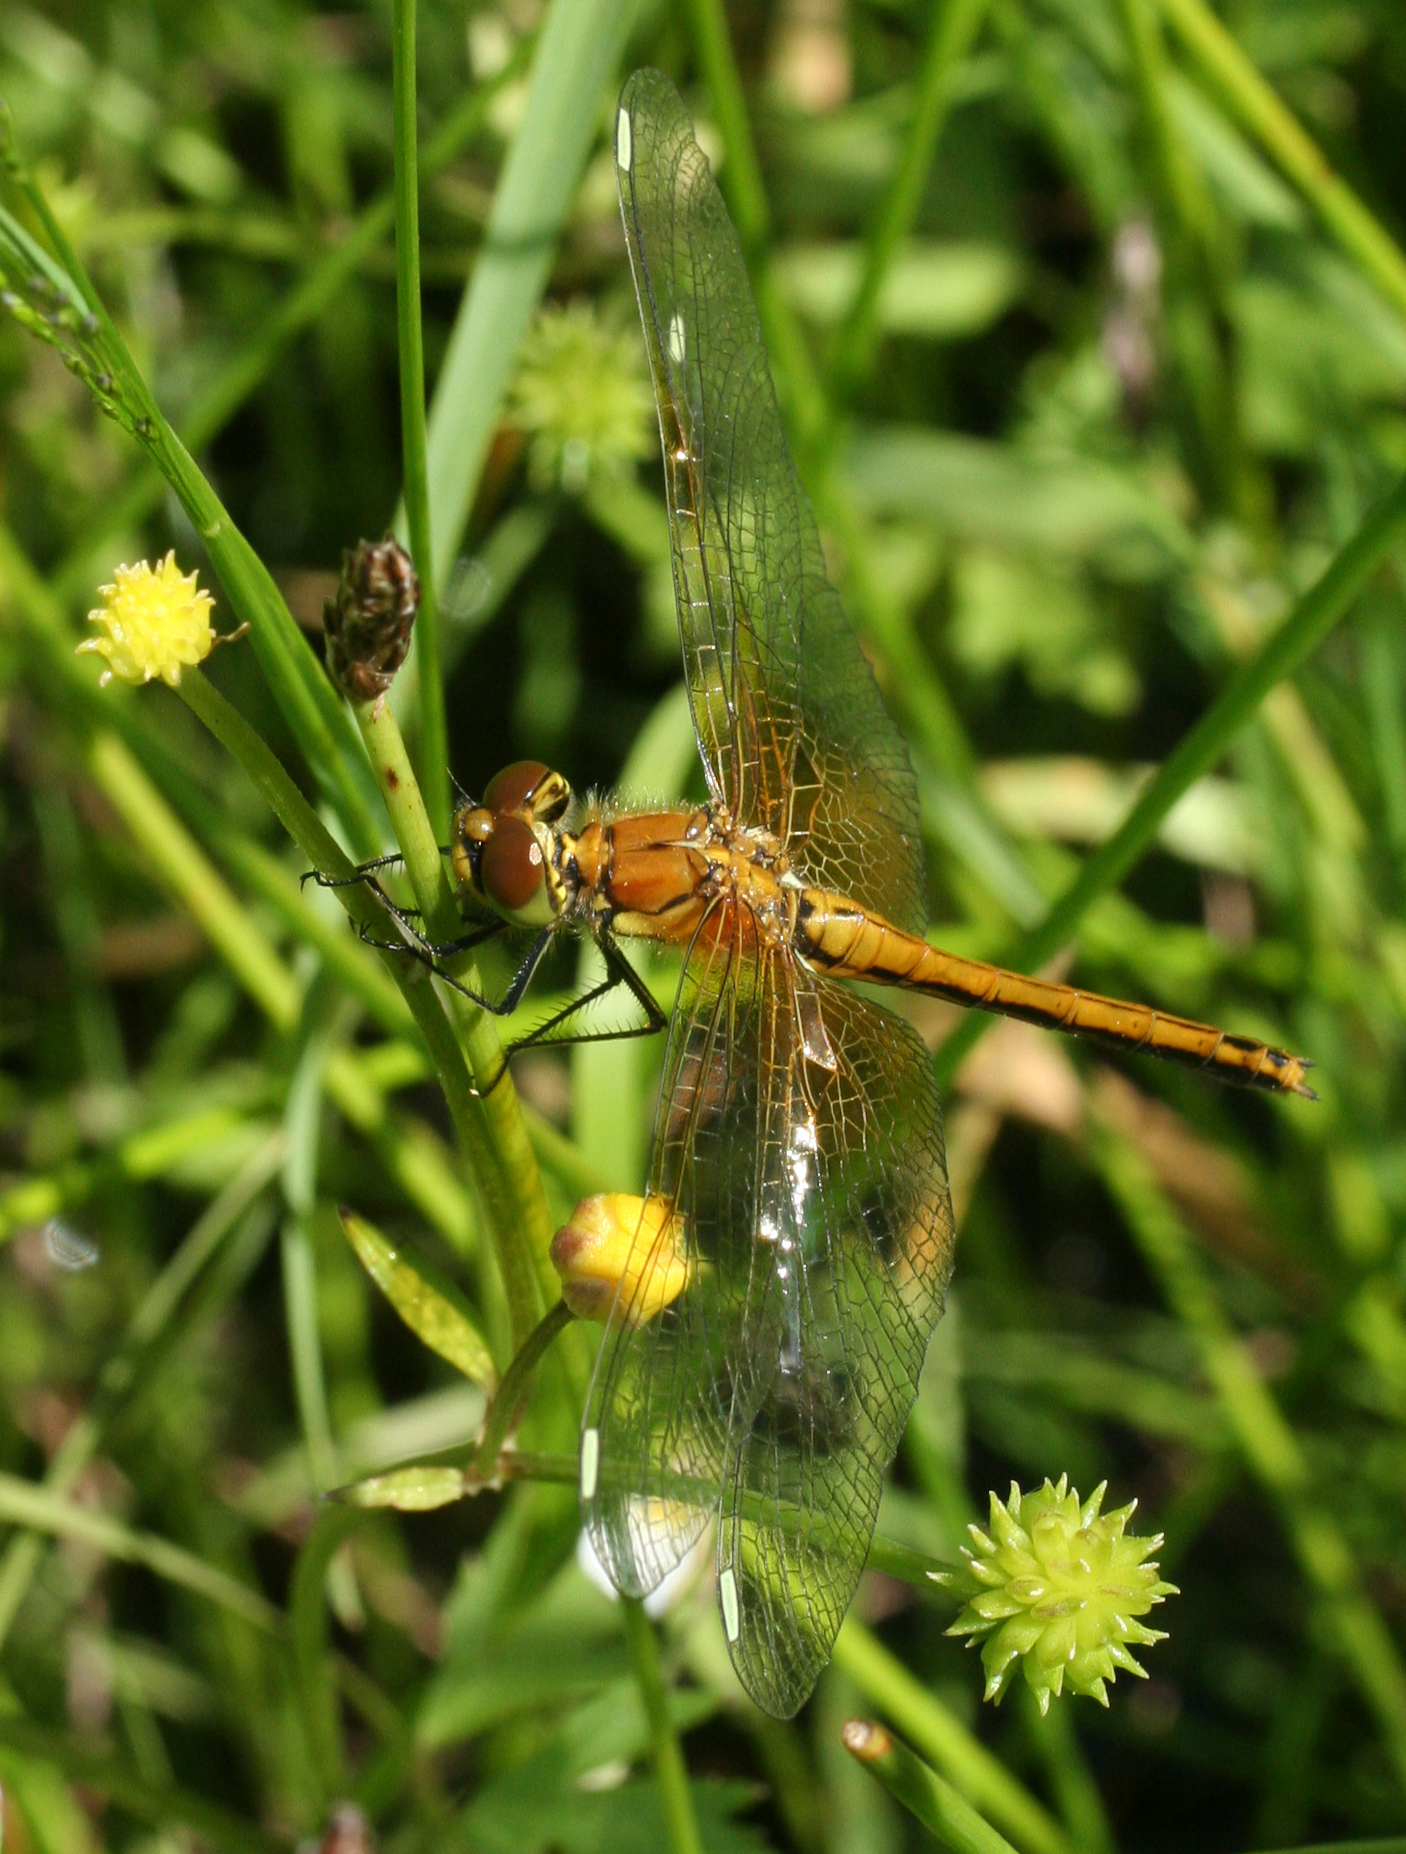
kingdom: Animalia
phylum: Arthropoda
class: Insecta
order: Odonata
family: Libellulidae
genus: Sympetrum
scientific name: Sympetrum flaveolum
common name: Yellow-winged darter
